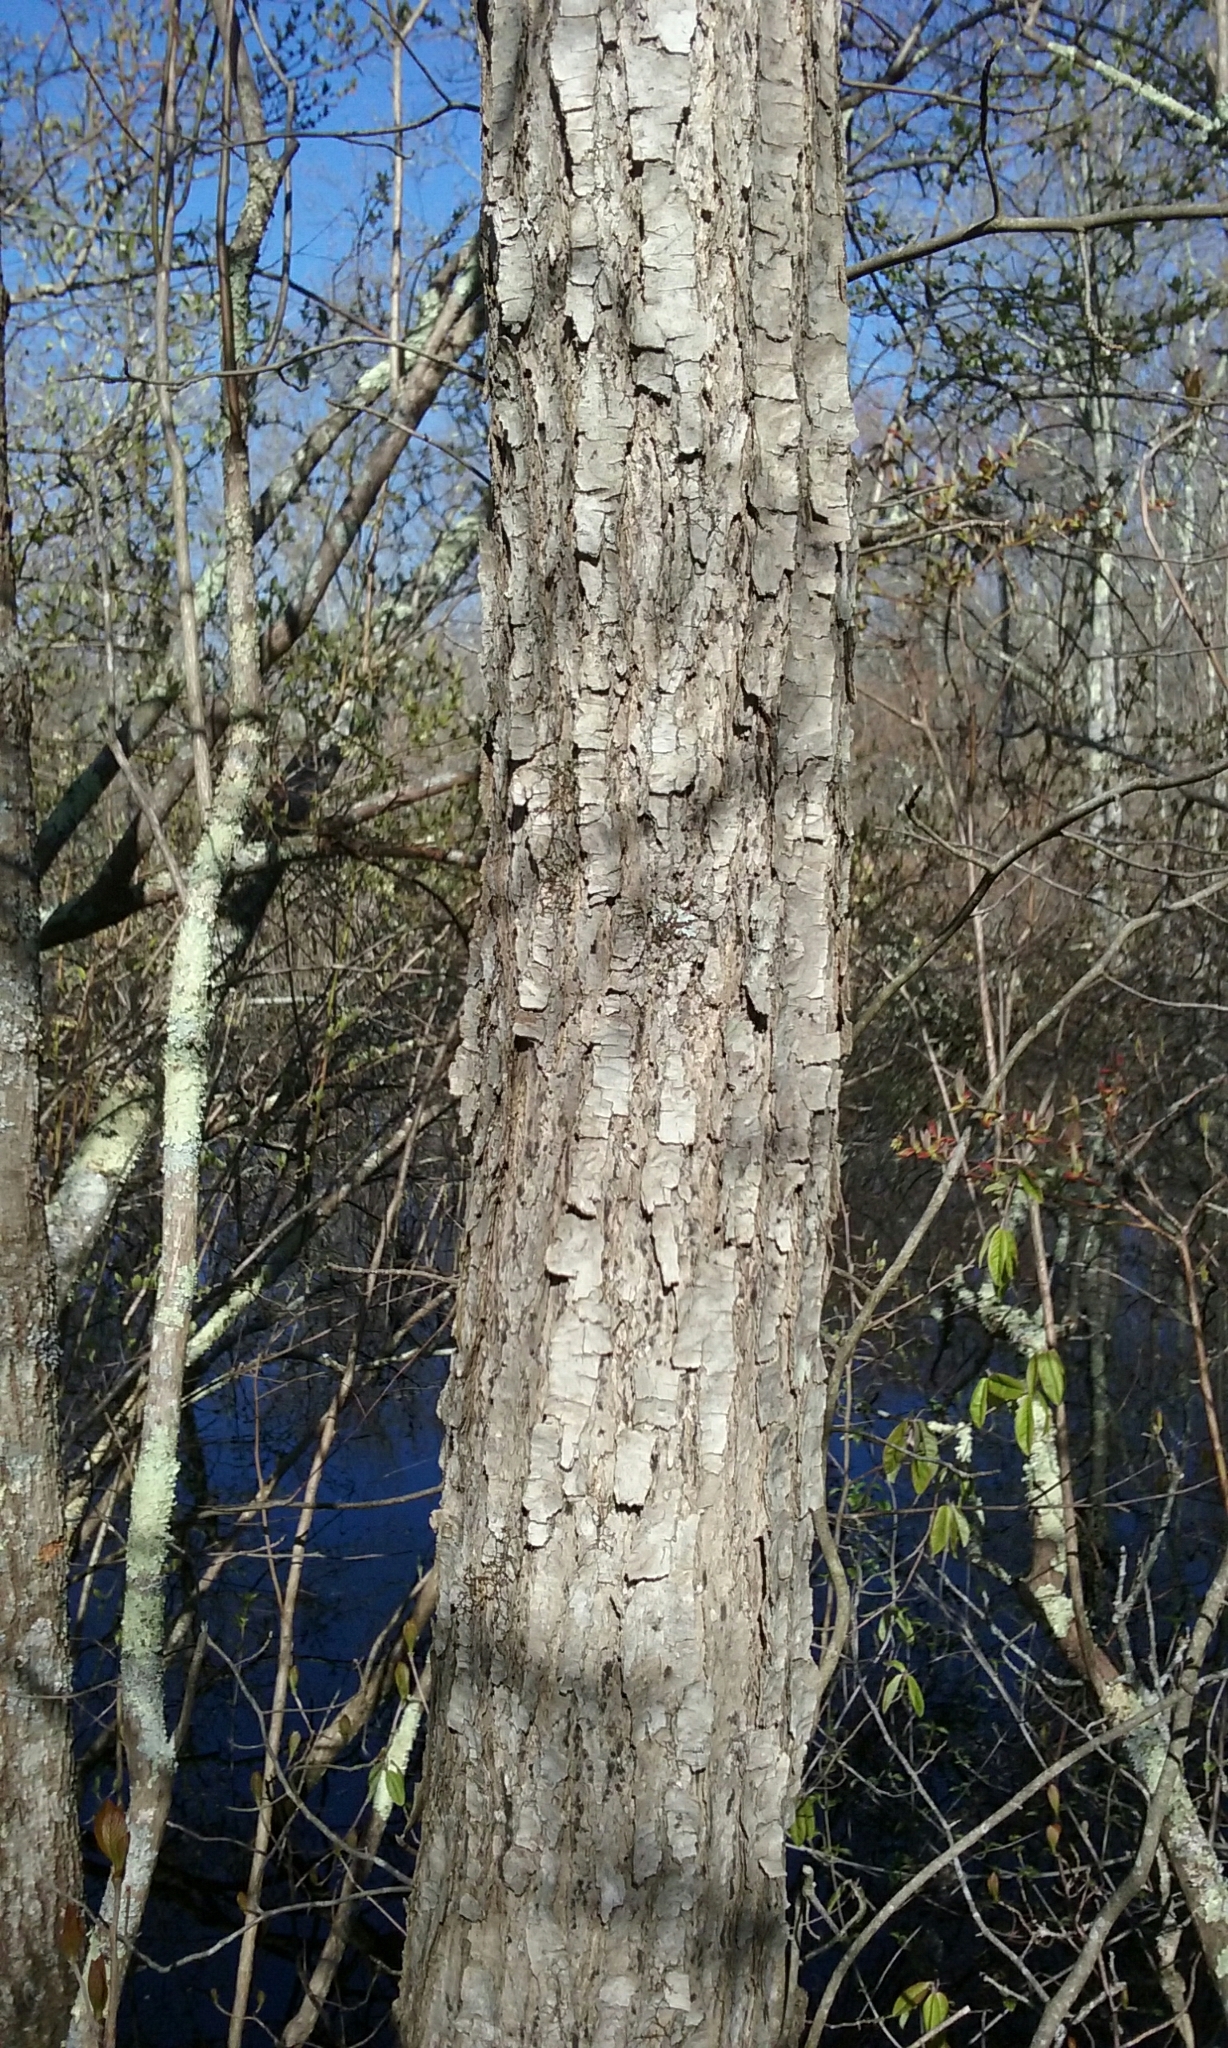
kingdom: Plantae
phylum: Tracheophyta
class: Magnoliopsida
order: Cornales
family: Nyssaceae
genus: Nyssa
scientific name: Nyssa sylvatica
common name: Black tupelo
